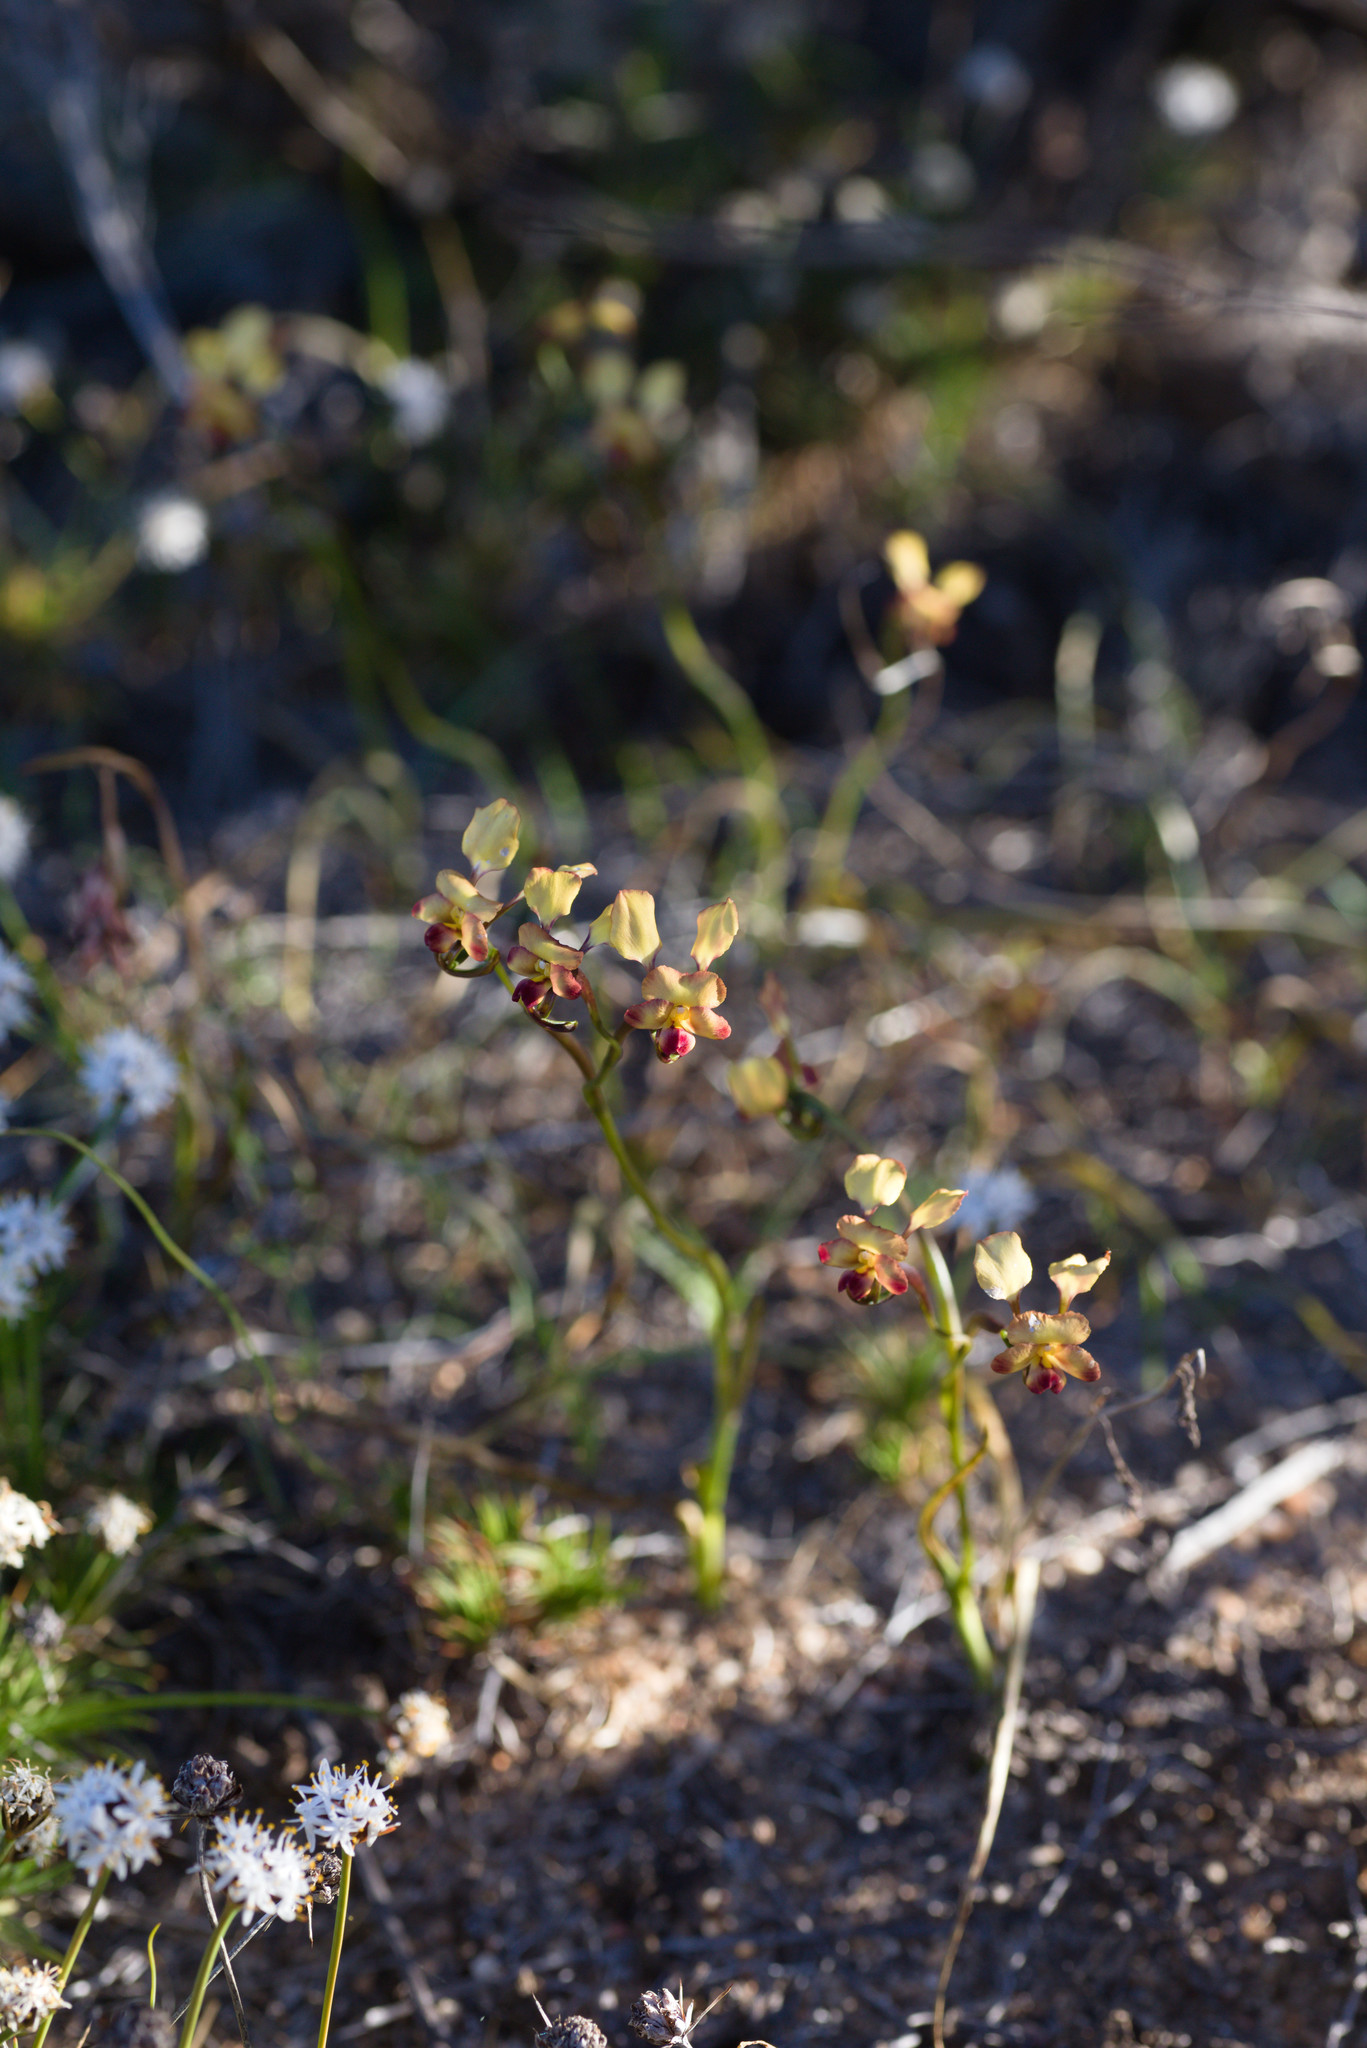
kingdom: Plantae
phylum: Tracheophyta
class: Liliopsida
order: Asparagales
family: Orchidaceae
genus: Diuris
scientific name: Diuris hazeliae
